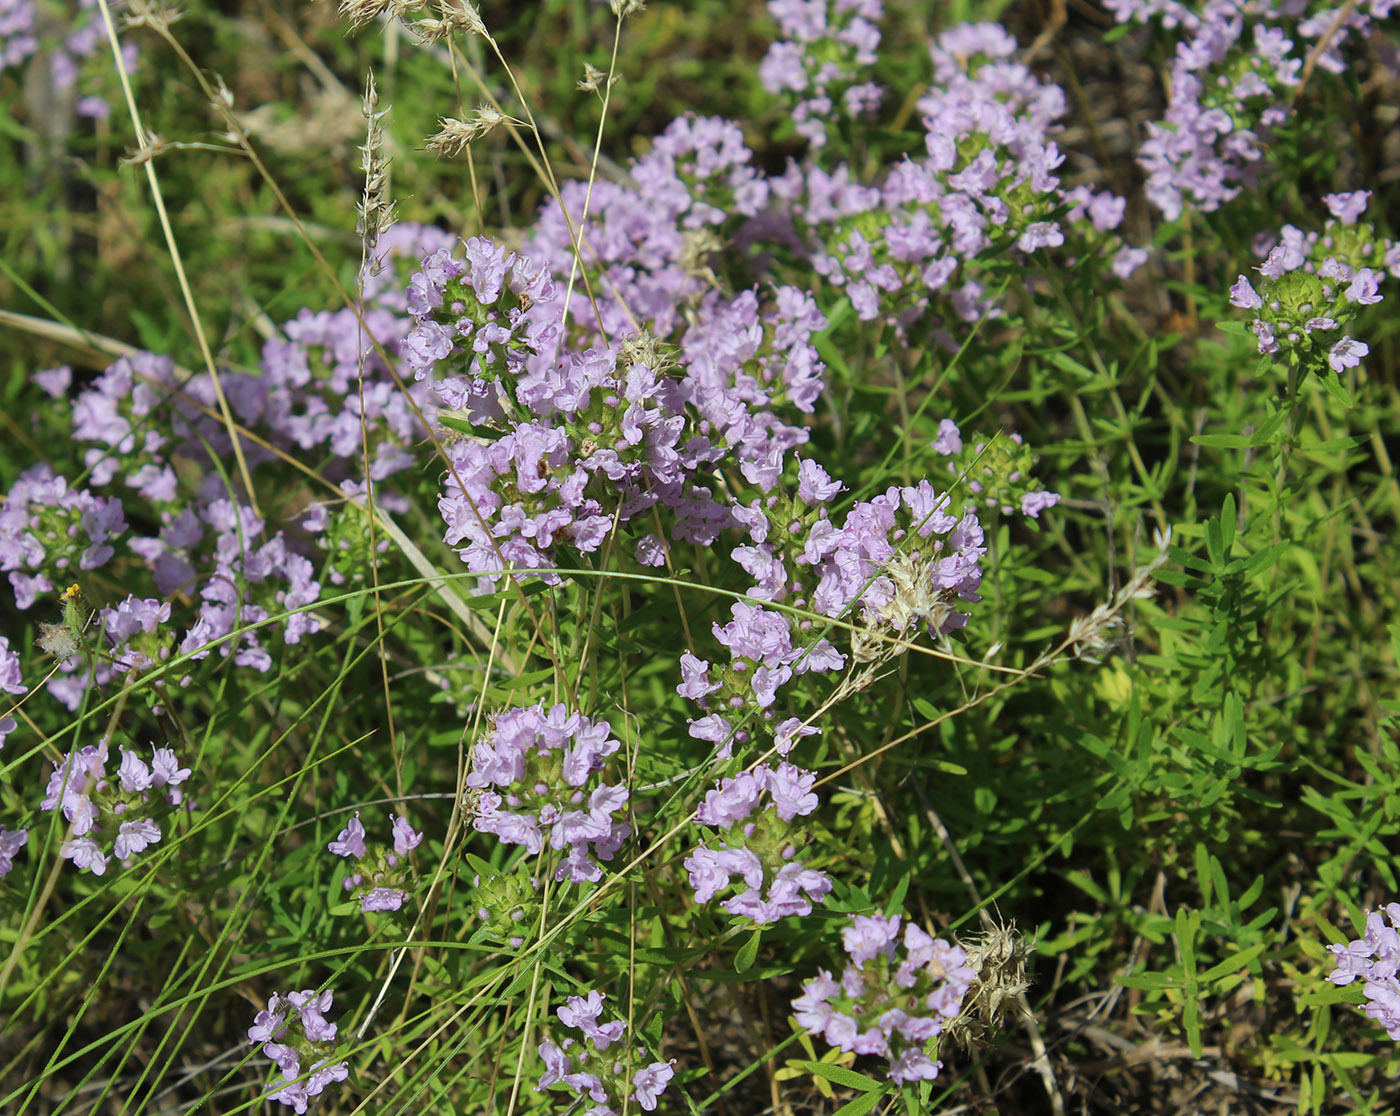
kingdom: Plantae
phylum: Tracheophyta
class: Magnoliopsida
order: Lamiales
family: Lamiaceae
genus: Thymus
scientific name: Thymus kirgisorum
